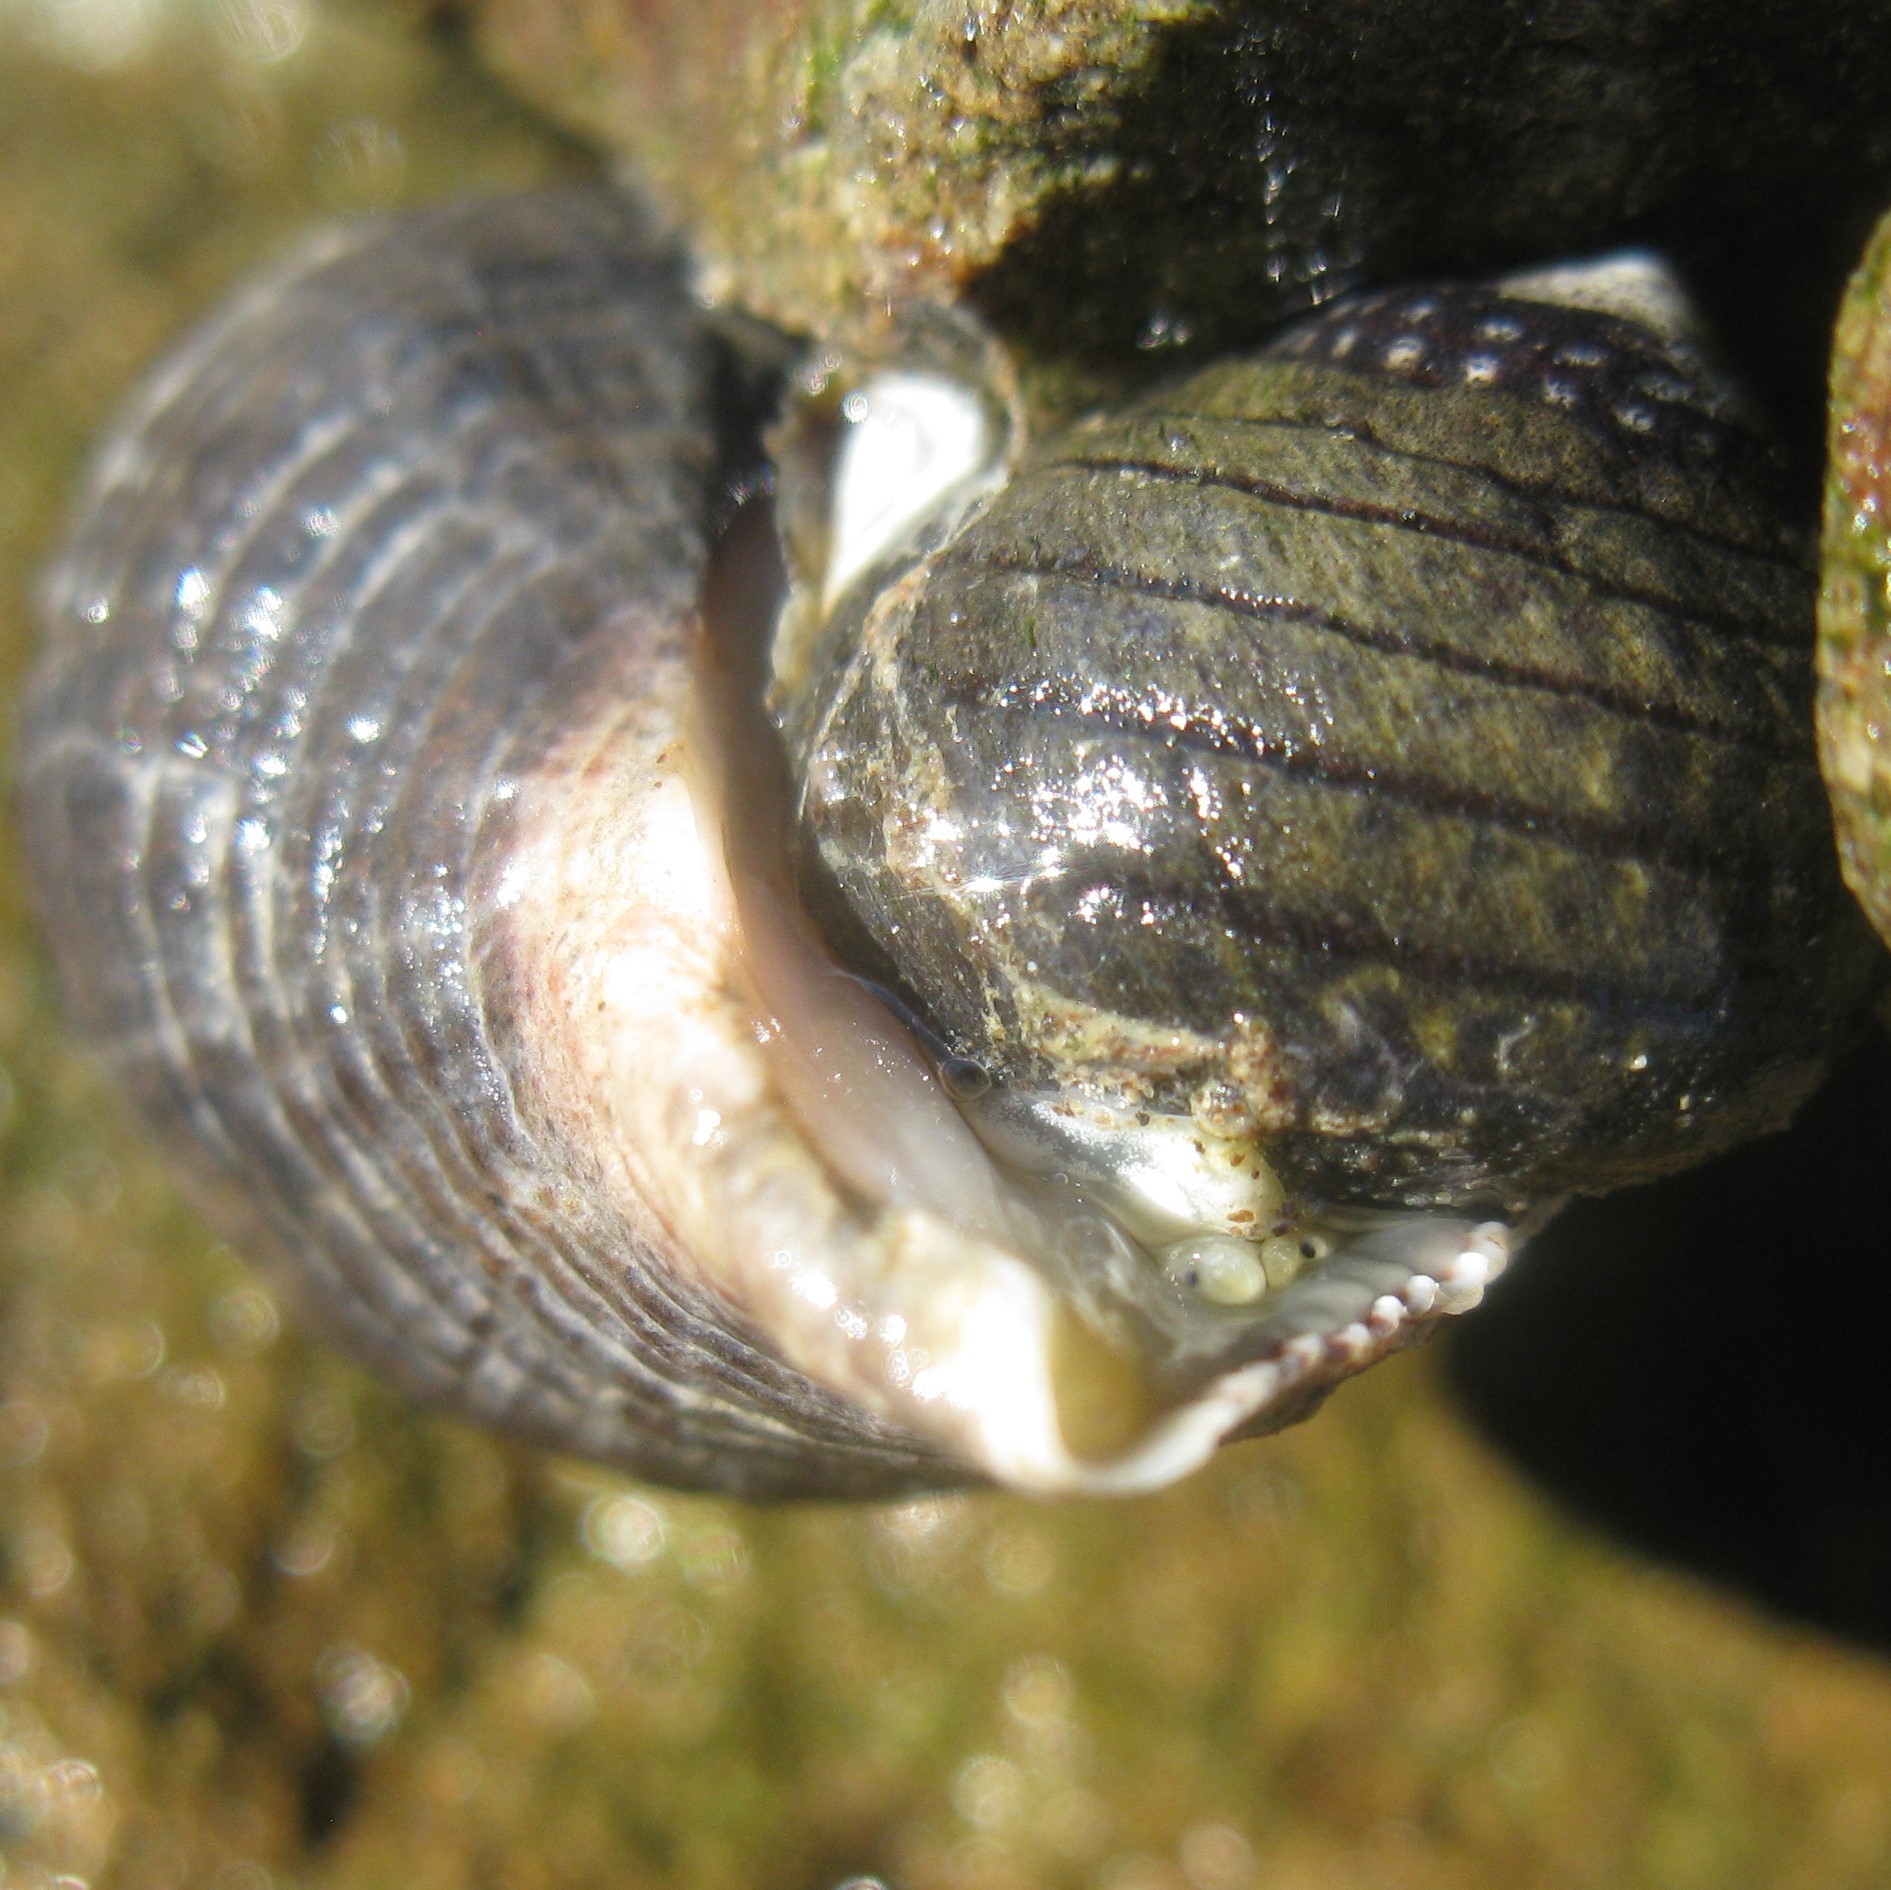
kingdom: Animalia
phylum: Mollusca
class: Gastropoda
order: Trochida
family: Trochidae
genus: Diloma
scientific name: Diloma aethiops
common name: Scorched monodont
